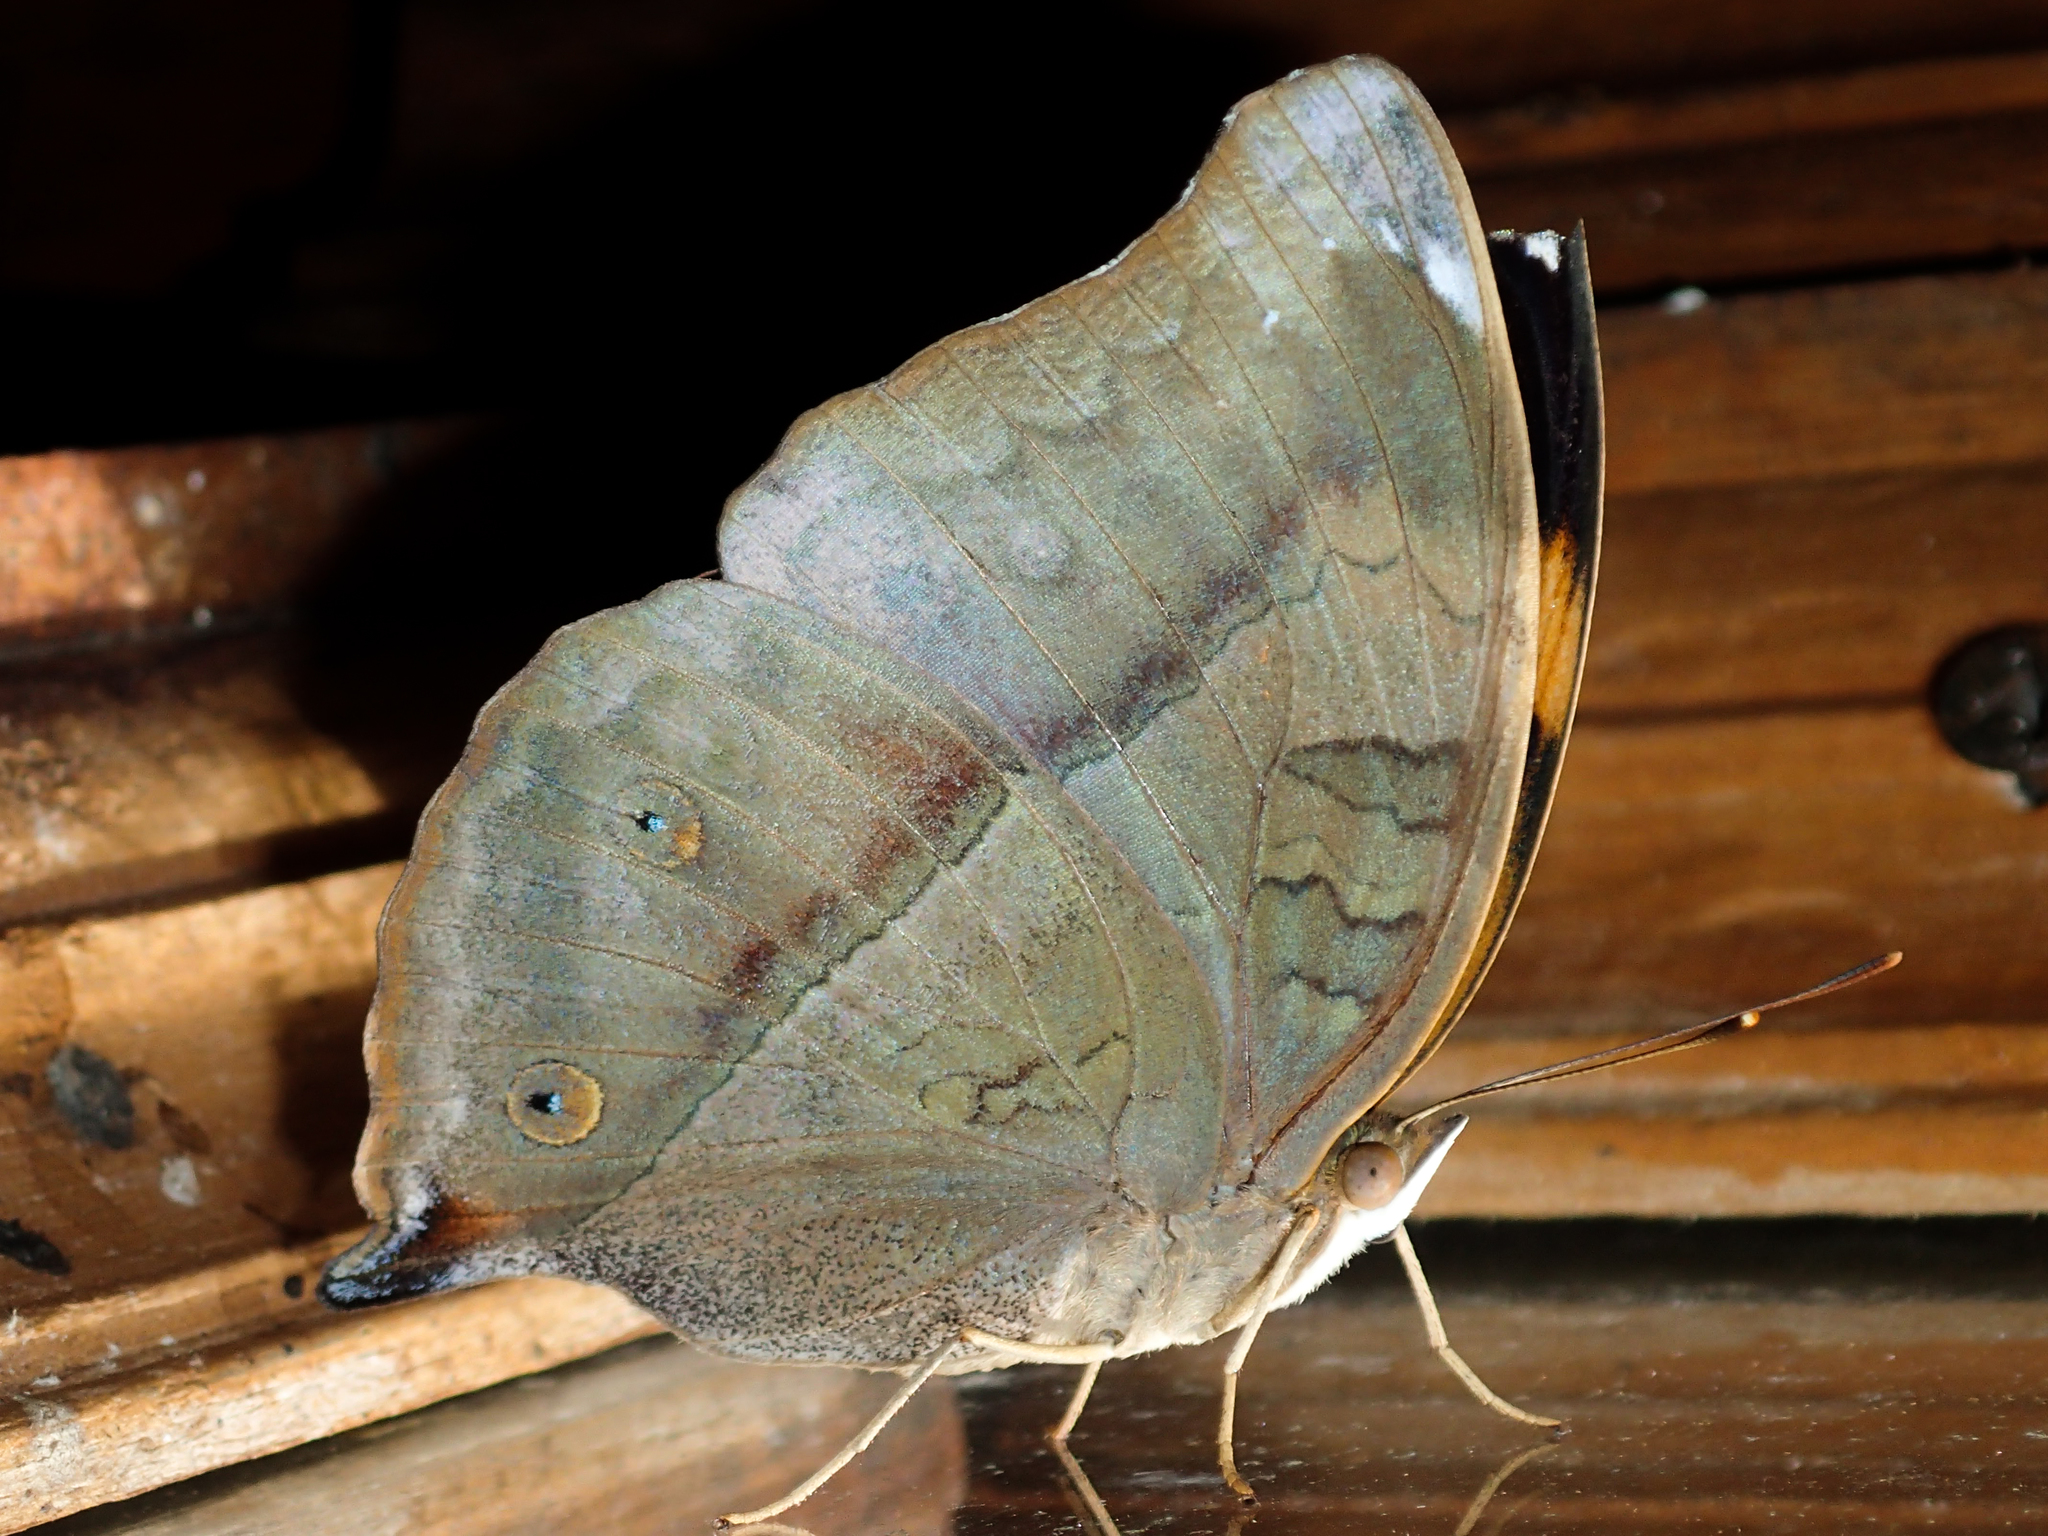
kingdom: Animalia
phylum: Arthropoda
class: Insecta
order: Lepidoptera
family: Nymphalidae
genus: Doleschallia
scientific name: Doleschallia bisaltide
